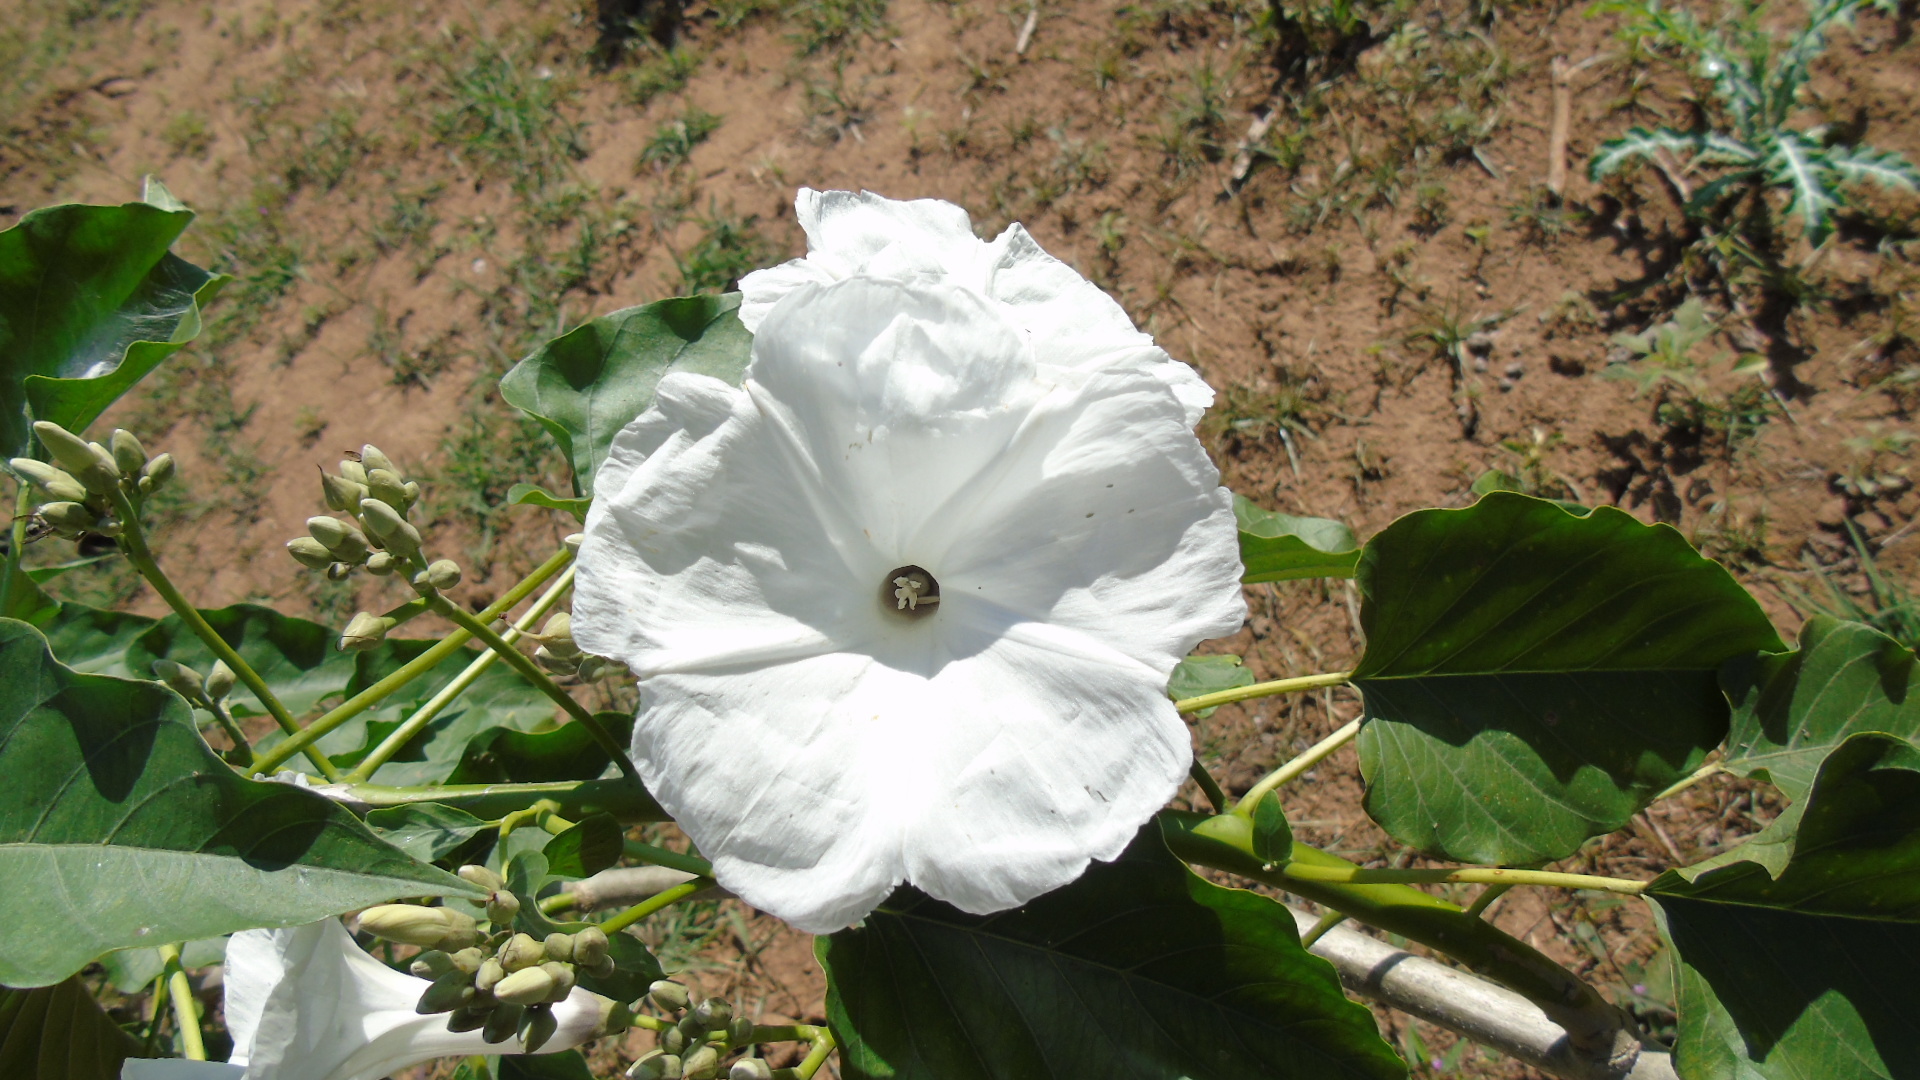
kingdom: Plantae
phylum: Tracheophyta
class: Magnoliopsida
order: Solanales
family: Convolvulaceae
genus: Ipomoea
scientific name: Ipomoea carnea
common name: Morning-glory
